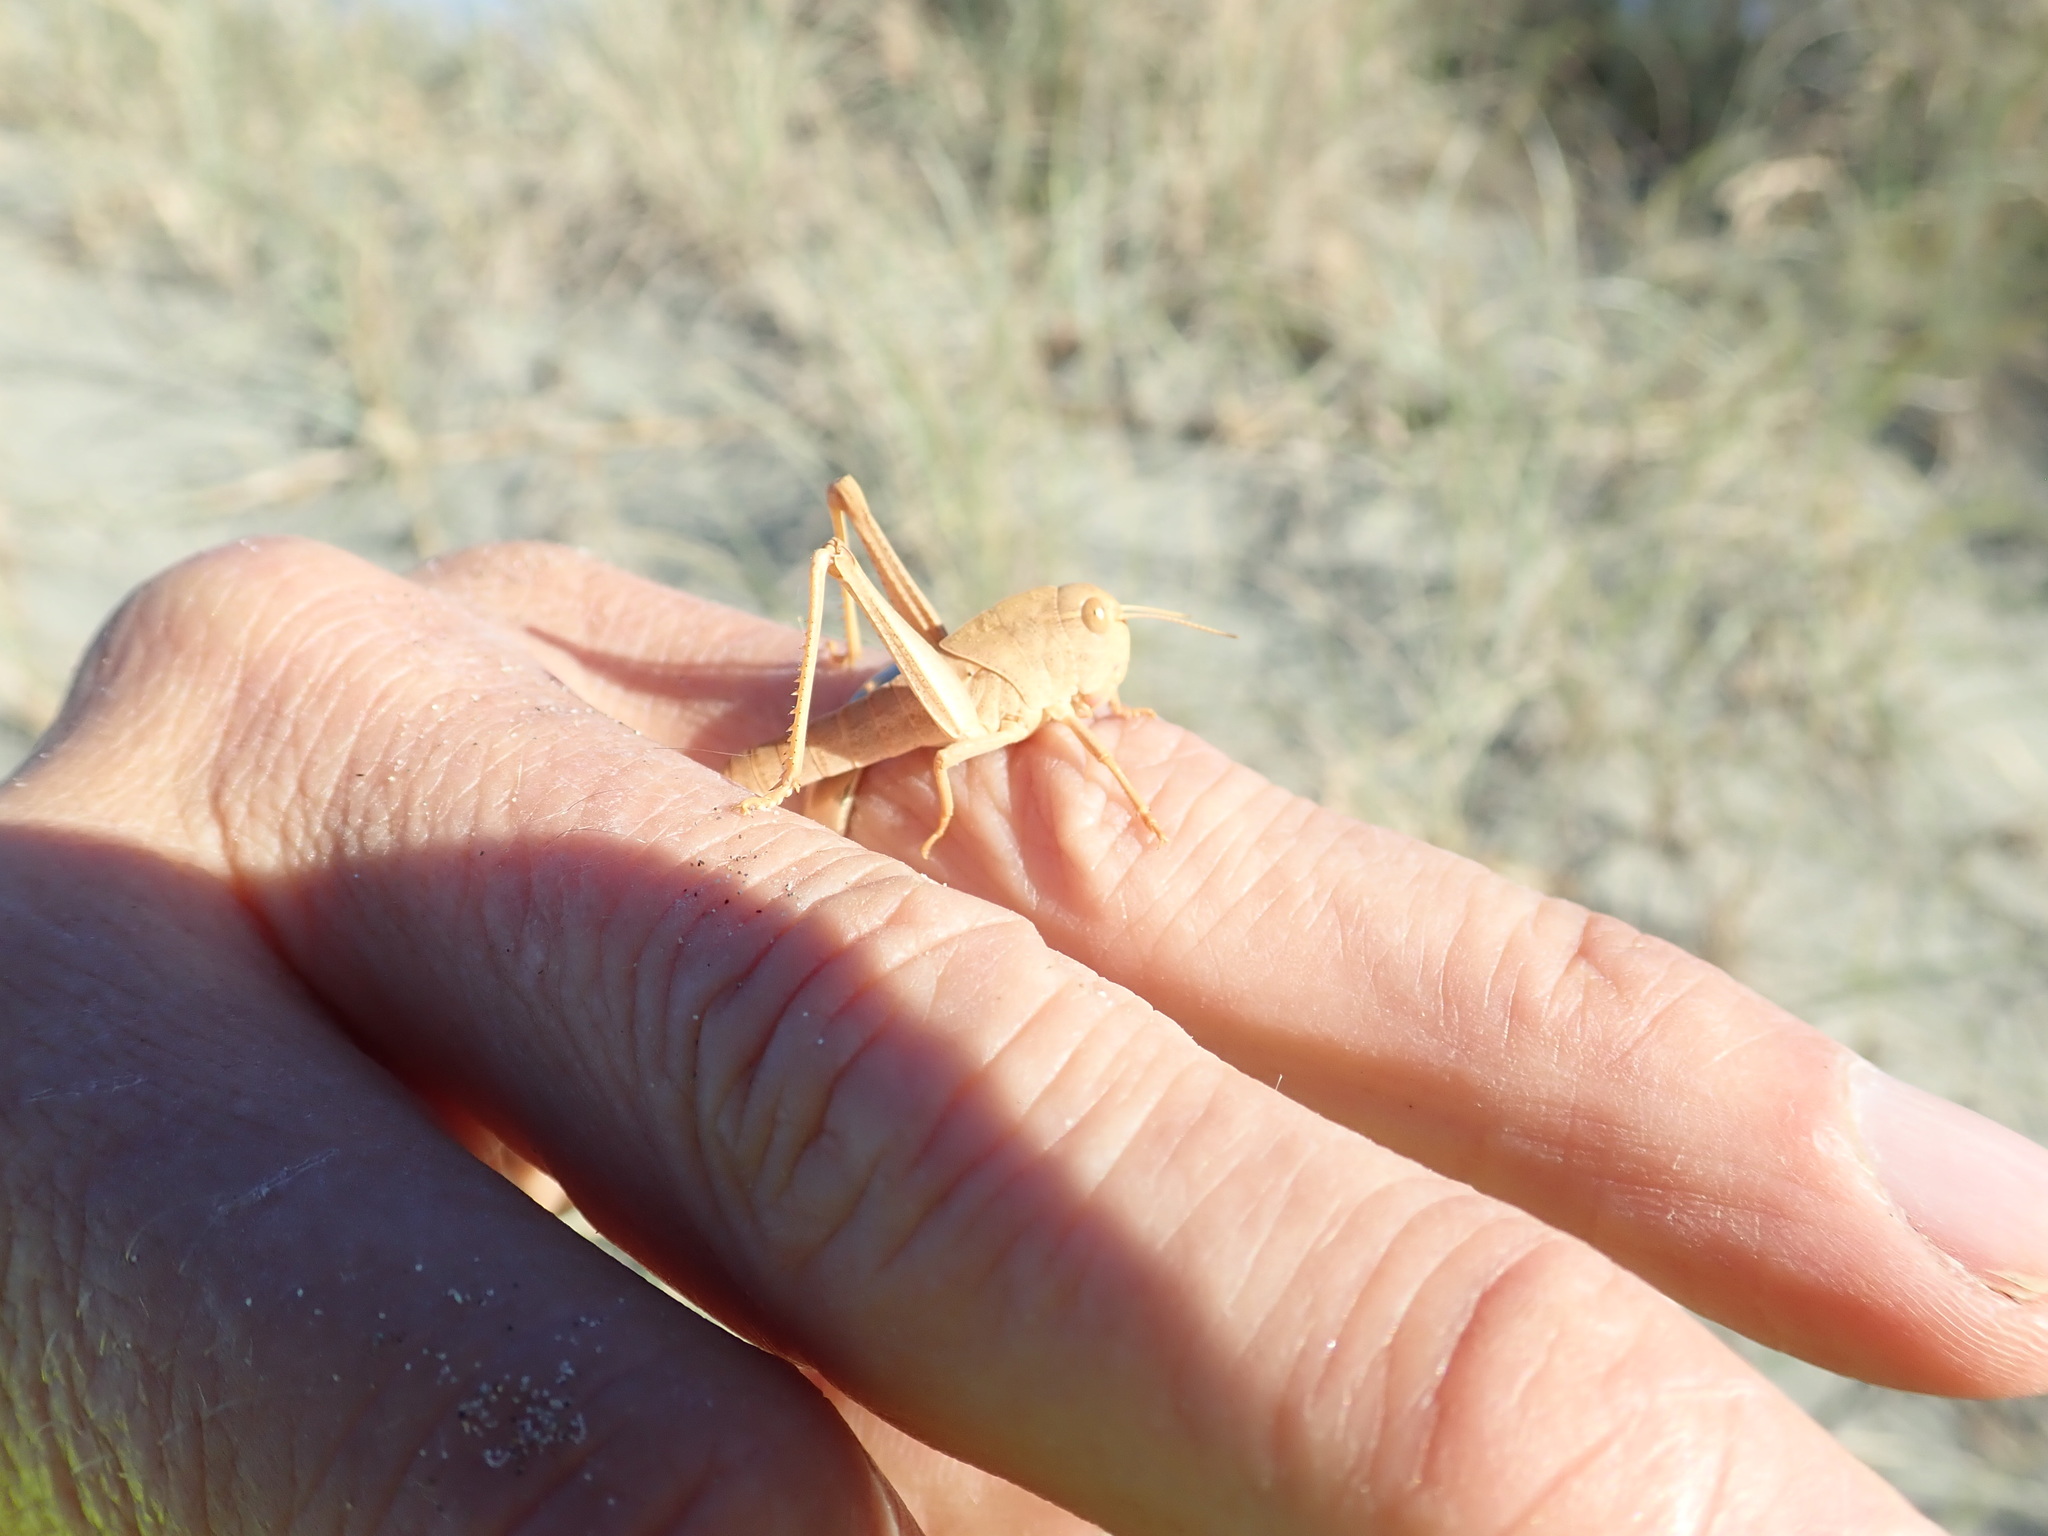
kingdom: Animalia
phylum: Arthropoda
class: Insecta
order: Orthoptera
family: Acrididae
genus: Locusta
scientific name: Locusta migratoria
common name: Migratory locust
